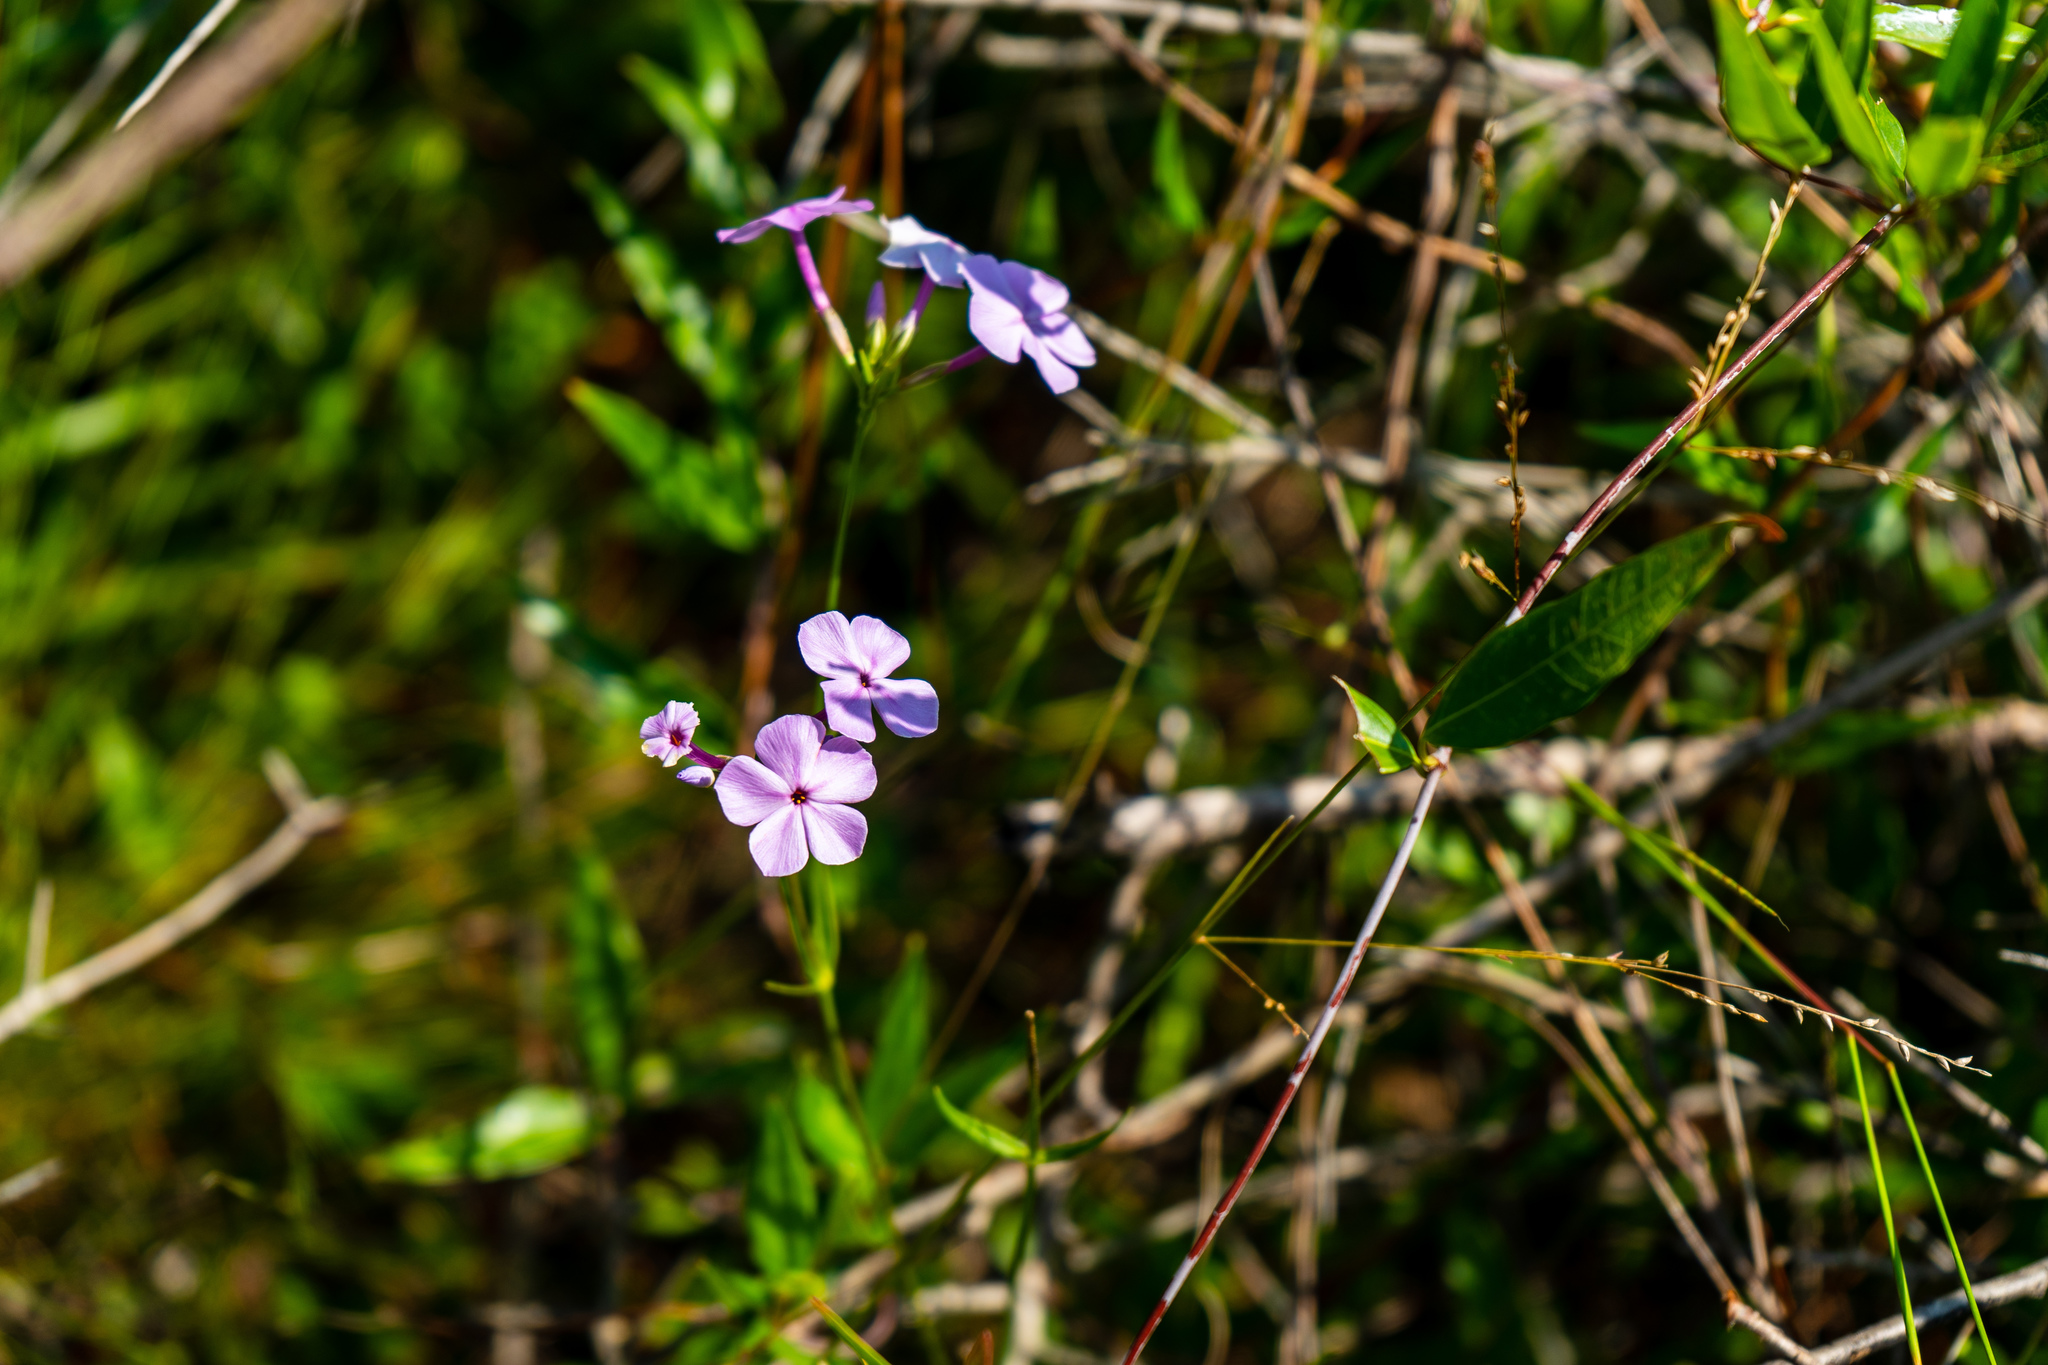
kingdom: Plantae
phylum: Tracheophyta
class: Magnoliopsida
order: Ericales
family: Polemoniaceae
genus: Phlox
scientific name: Phlox carolina
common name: Thick-leaf phlox
